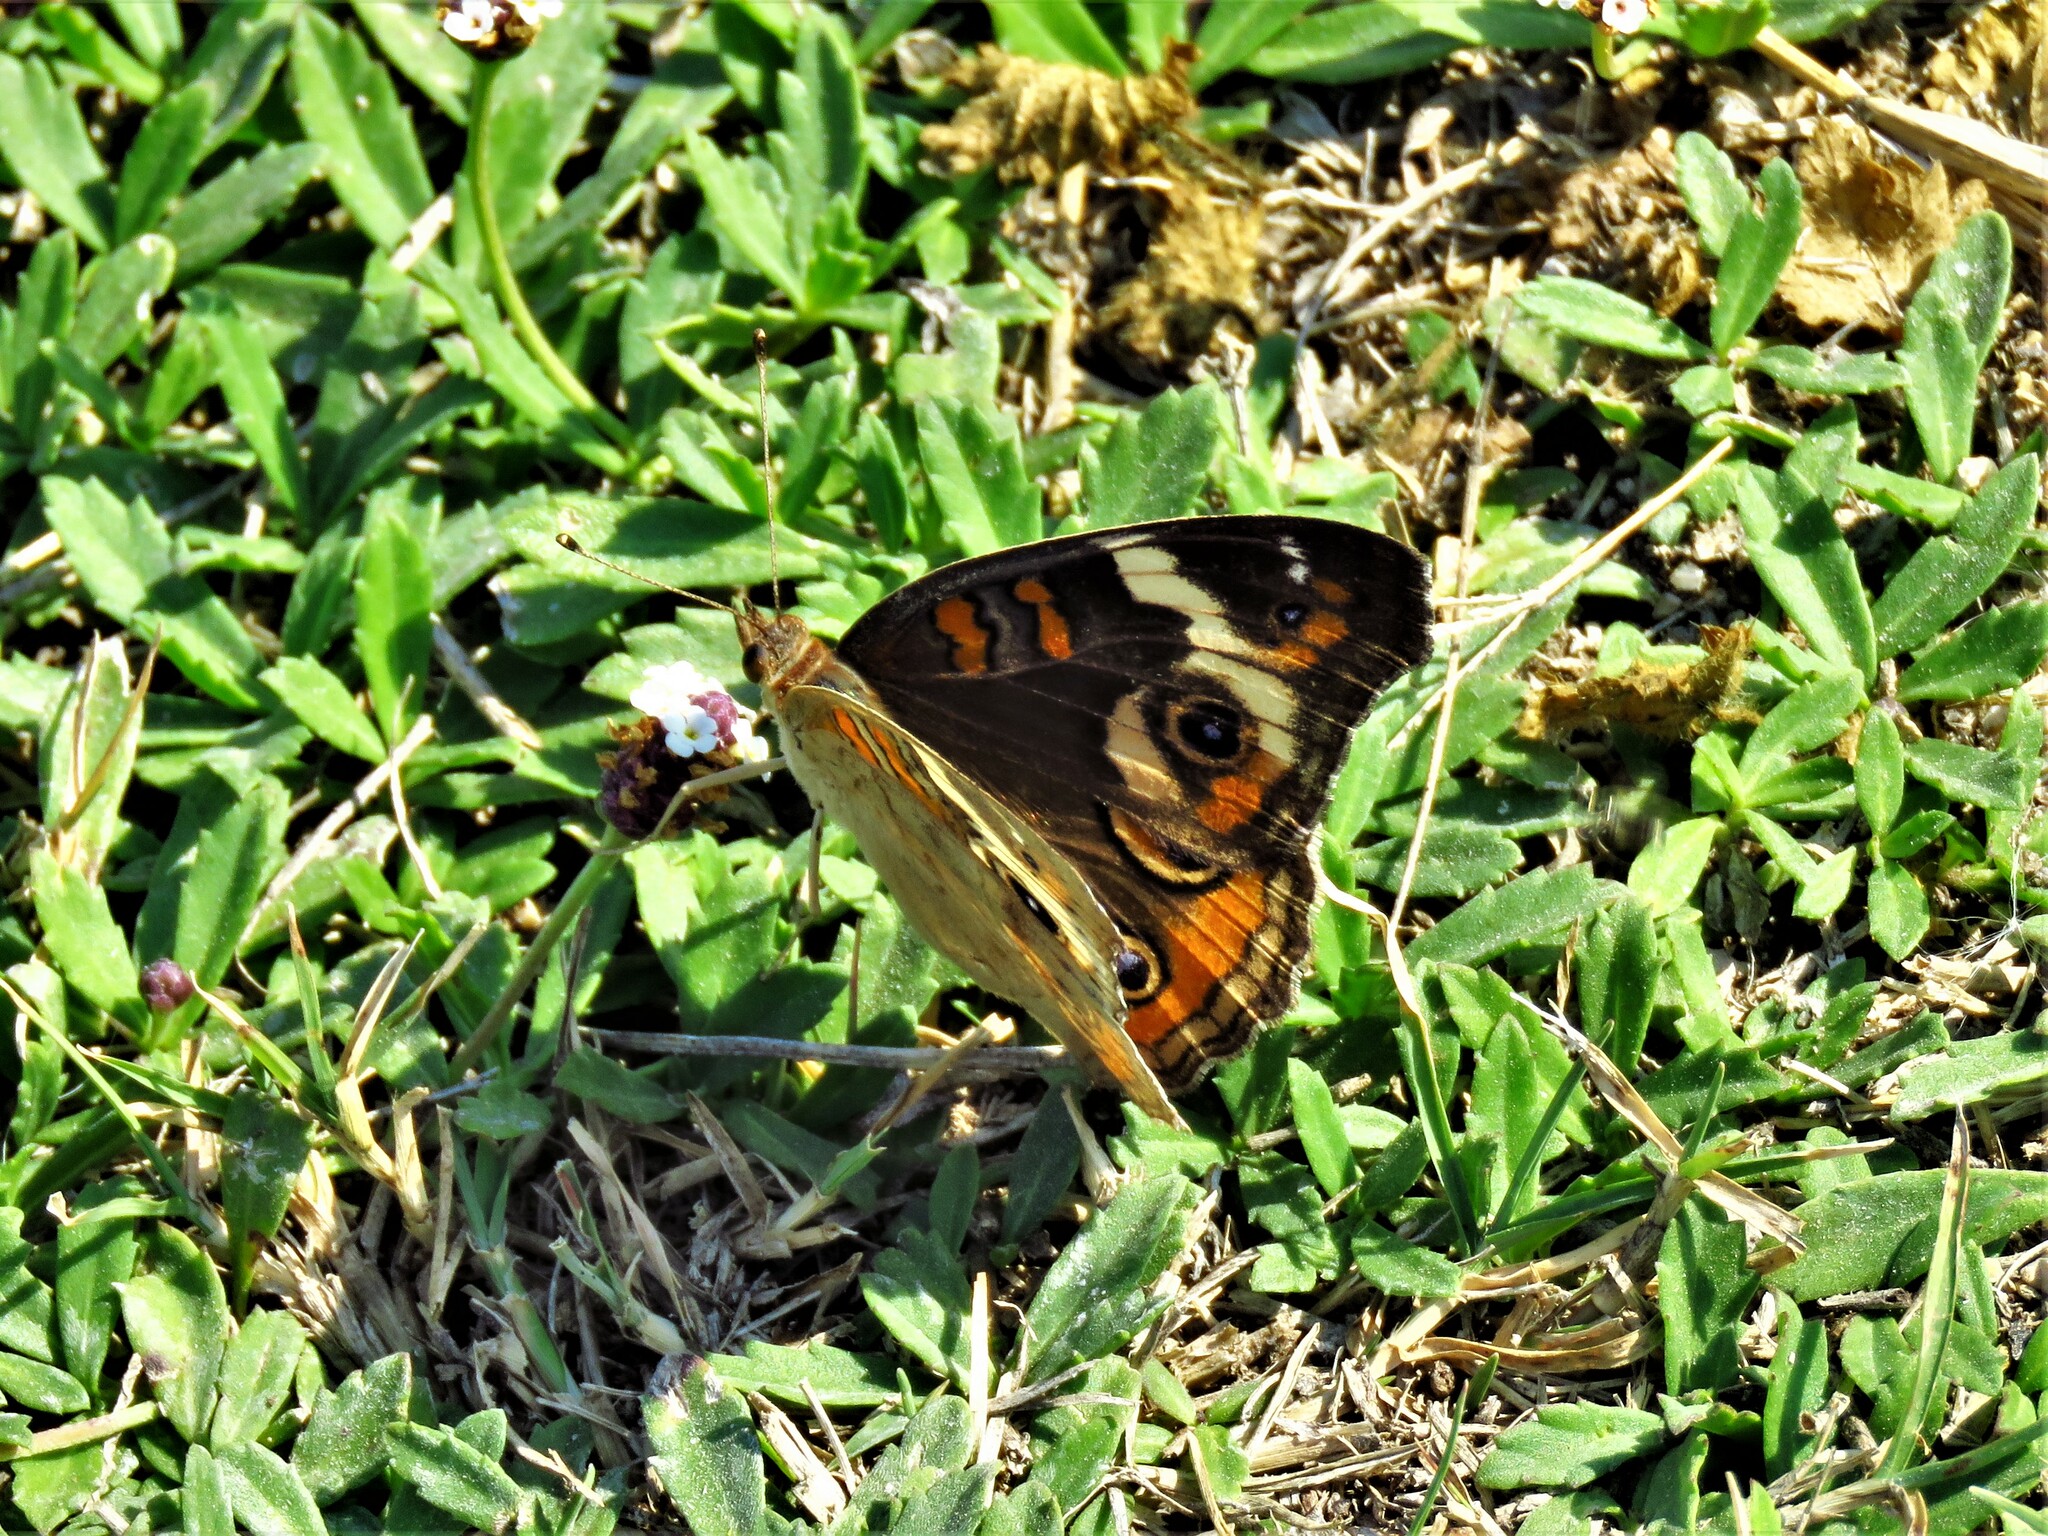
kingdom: Animalia
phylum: Arthropoda
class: Insecta
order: Lepidoptera
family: Nymphalidae
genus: Junonia
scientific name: Junonia coenia
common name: Common buckeye
